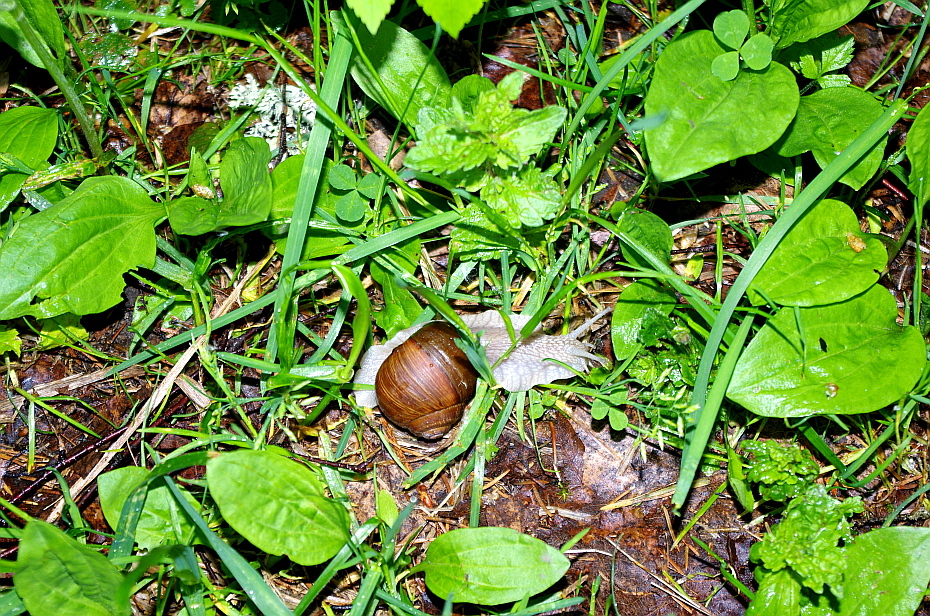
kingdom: Plantae
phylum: Tracheophyta
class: Magnoliopsida
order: Lamiales
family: Plantaginaceae
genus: Plantago
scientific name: Plantago major
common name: Common plantain
